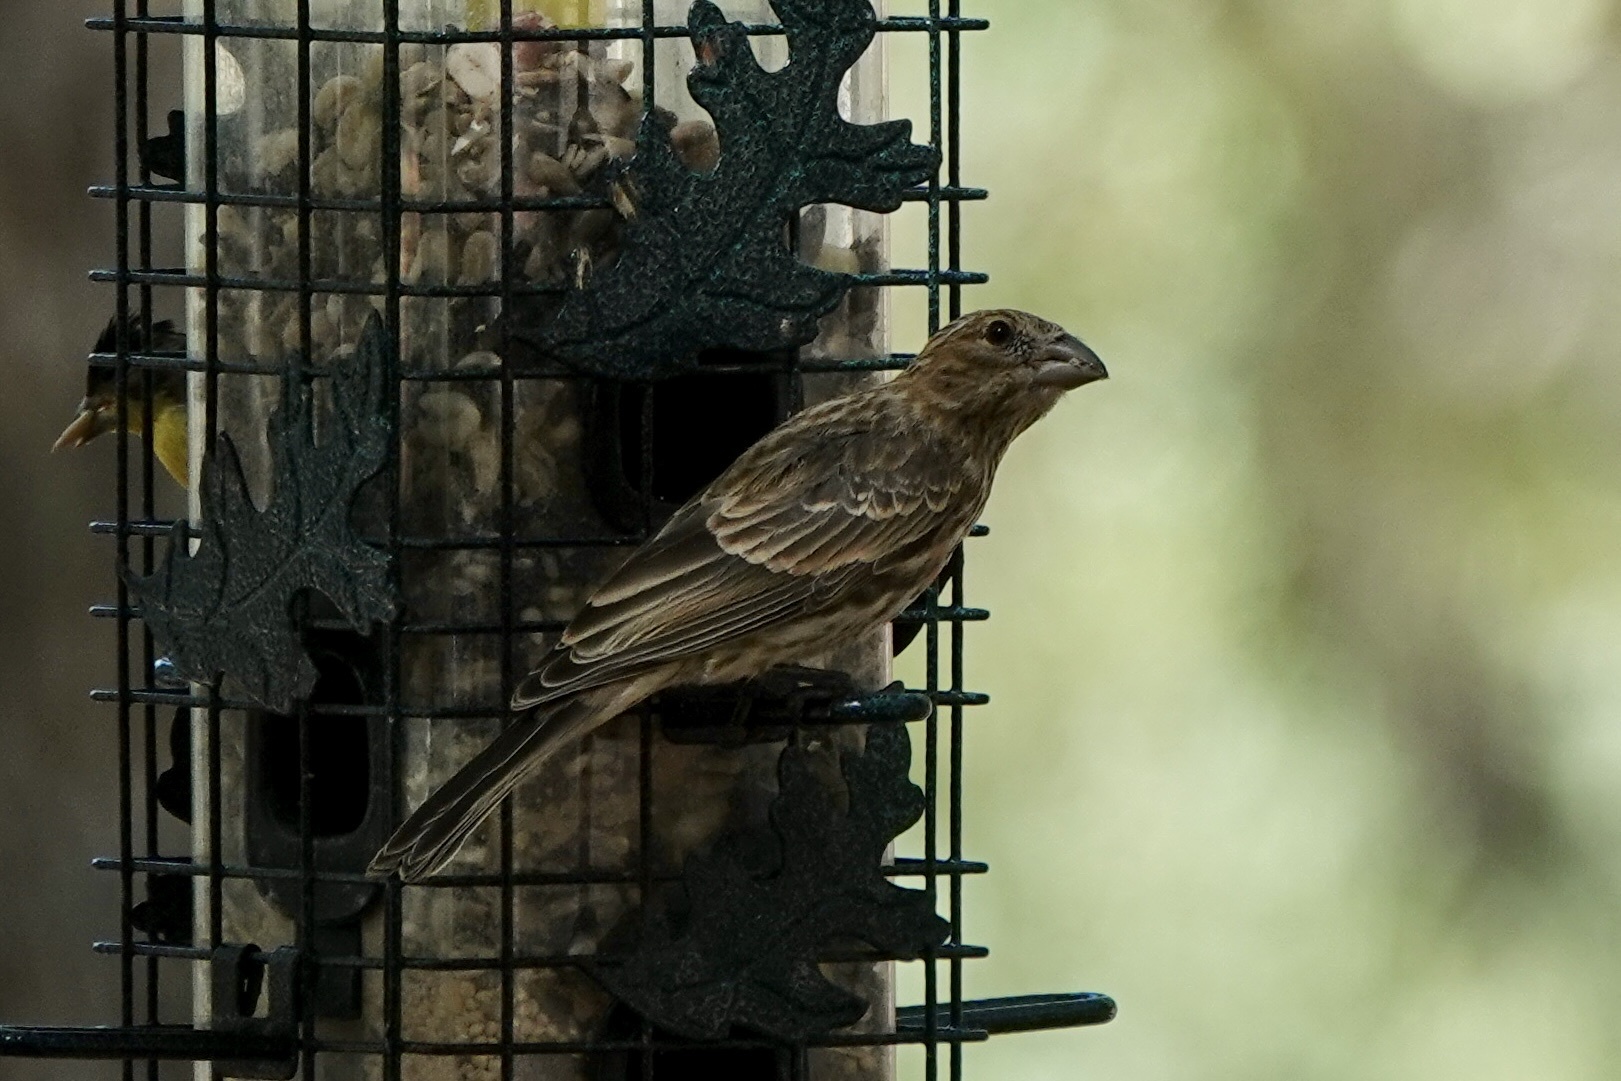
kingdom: Animalia
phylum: Chordata
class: Aves
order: Passeriformes
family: Fringillidae
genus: Haemorhous
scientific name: Haemorhous mexicanus
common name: House finch
